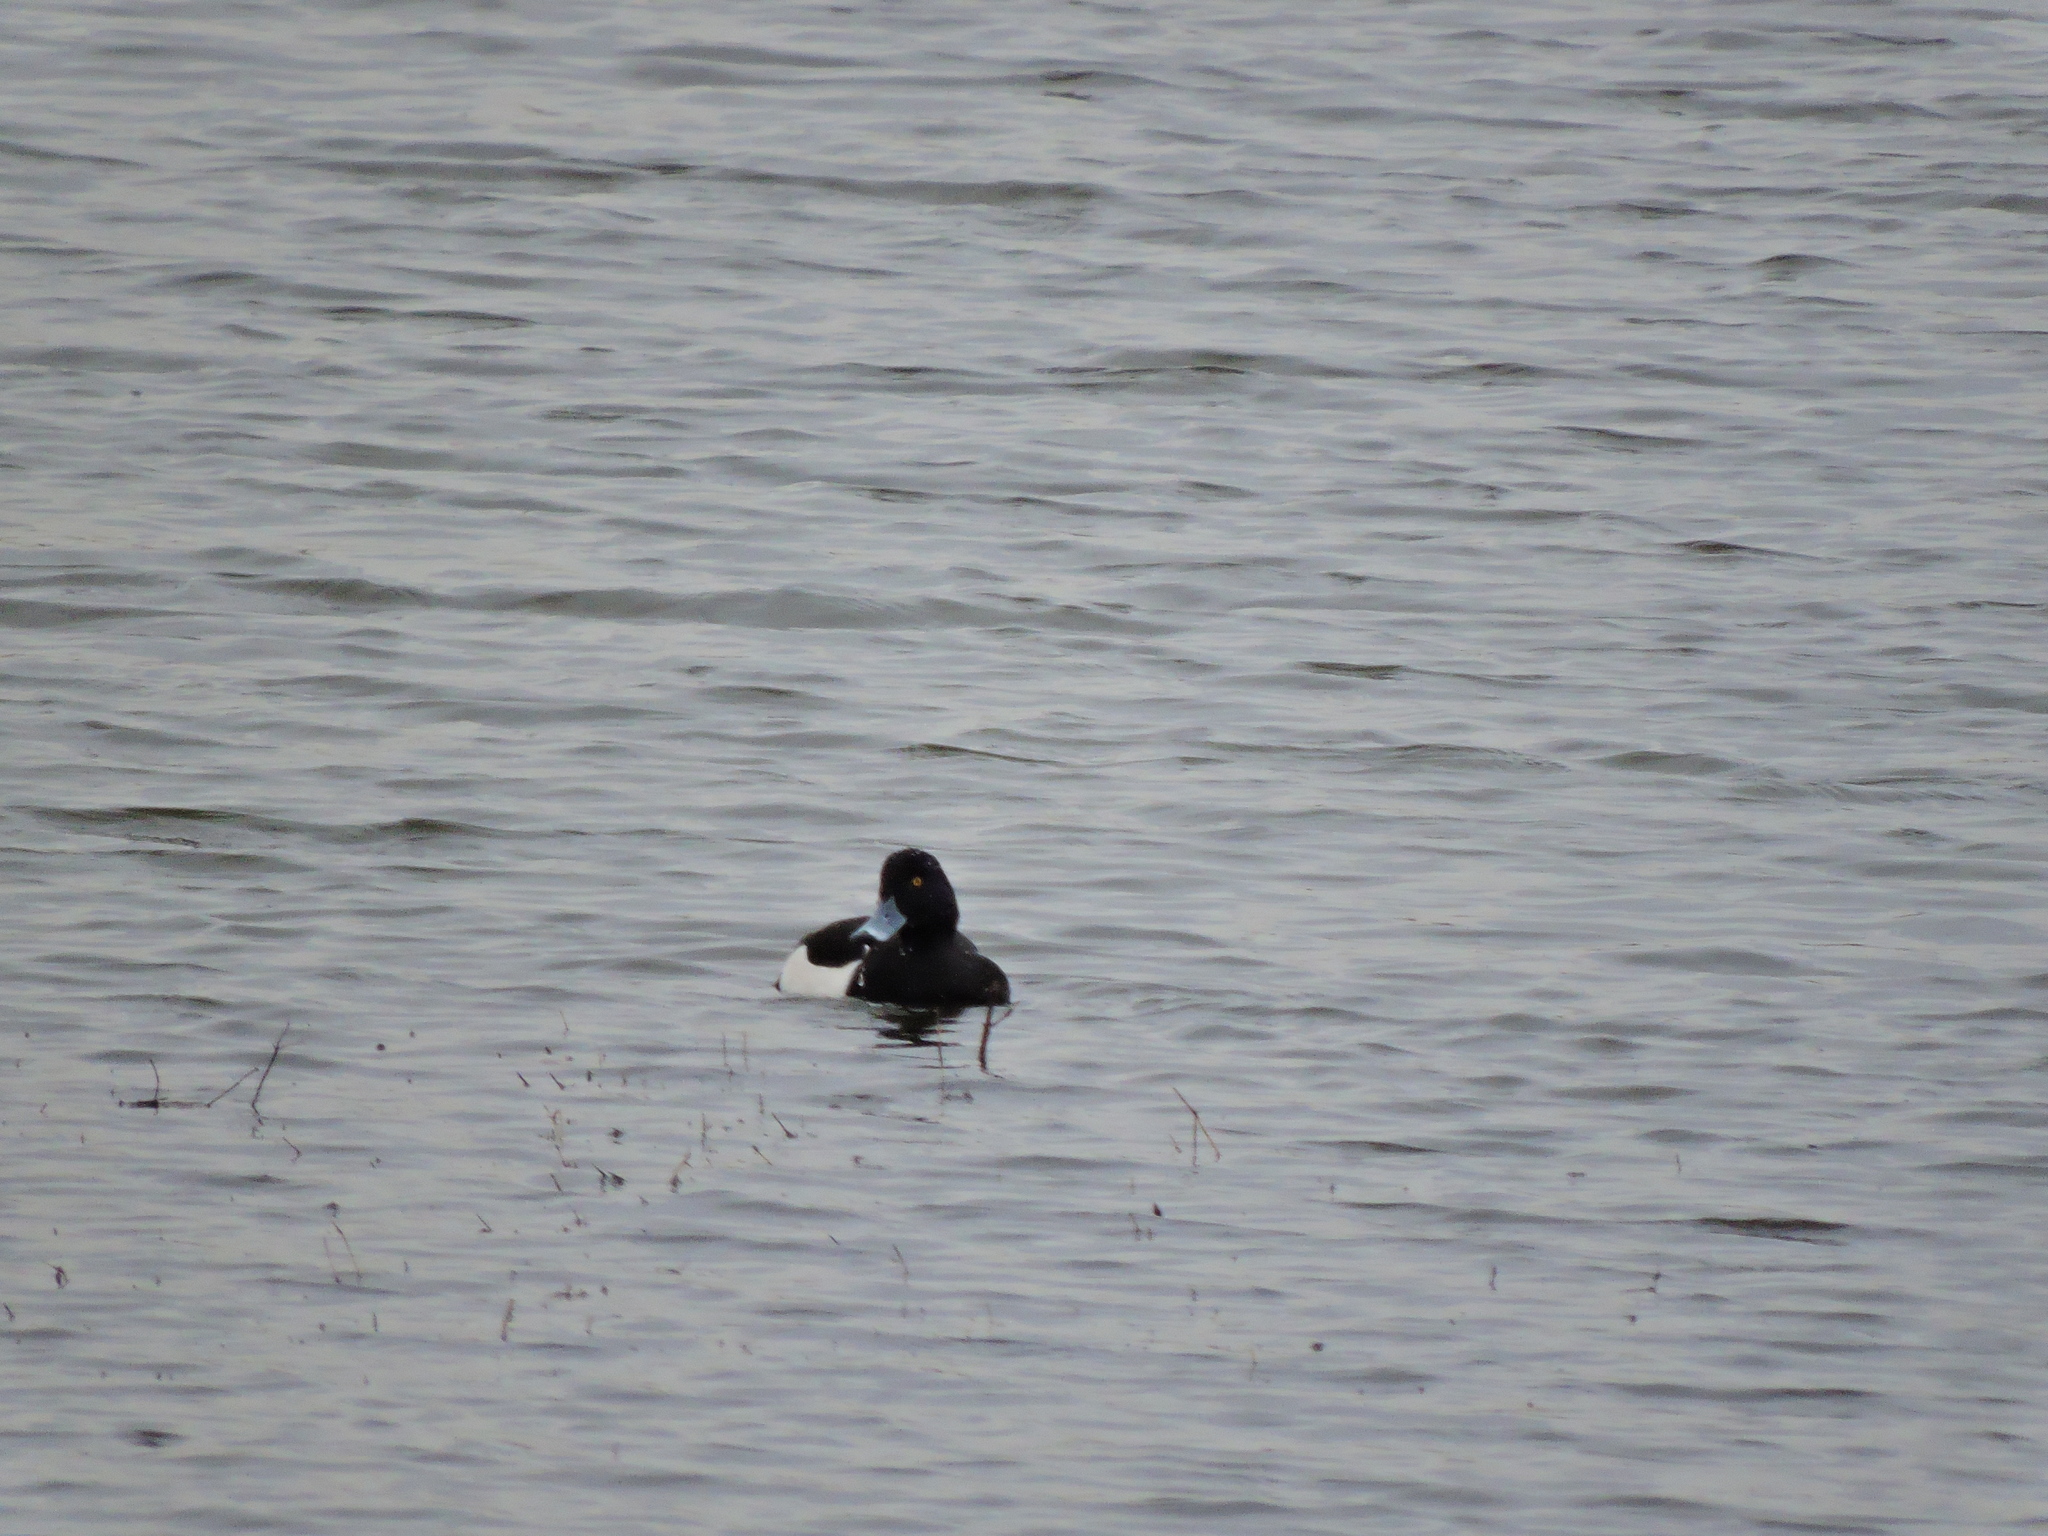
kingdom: Animalia
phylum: Chordata
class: Aves
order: Anseriformes
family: Anatidae
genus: Aythya
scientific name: Aythya fuligula
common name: Tufted duck
